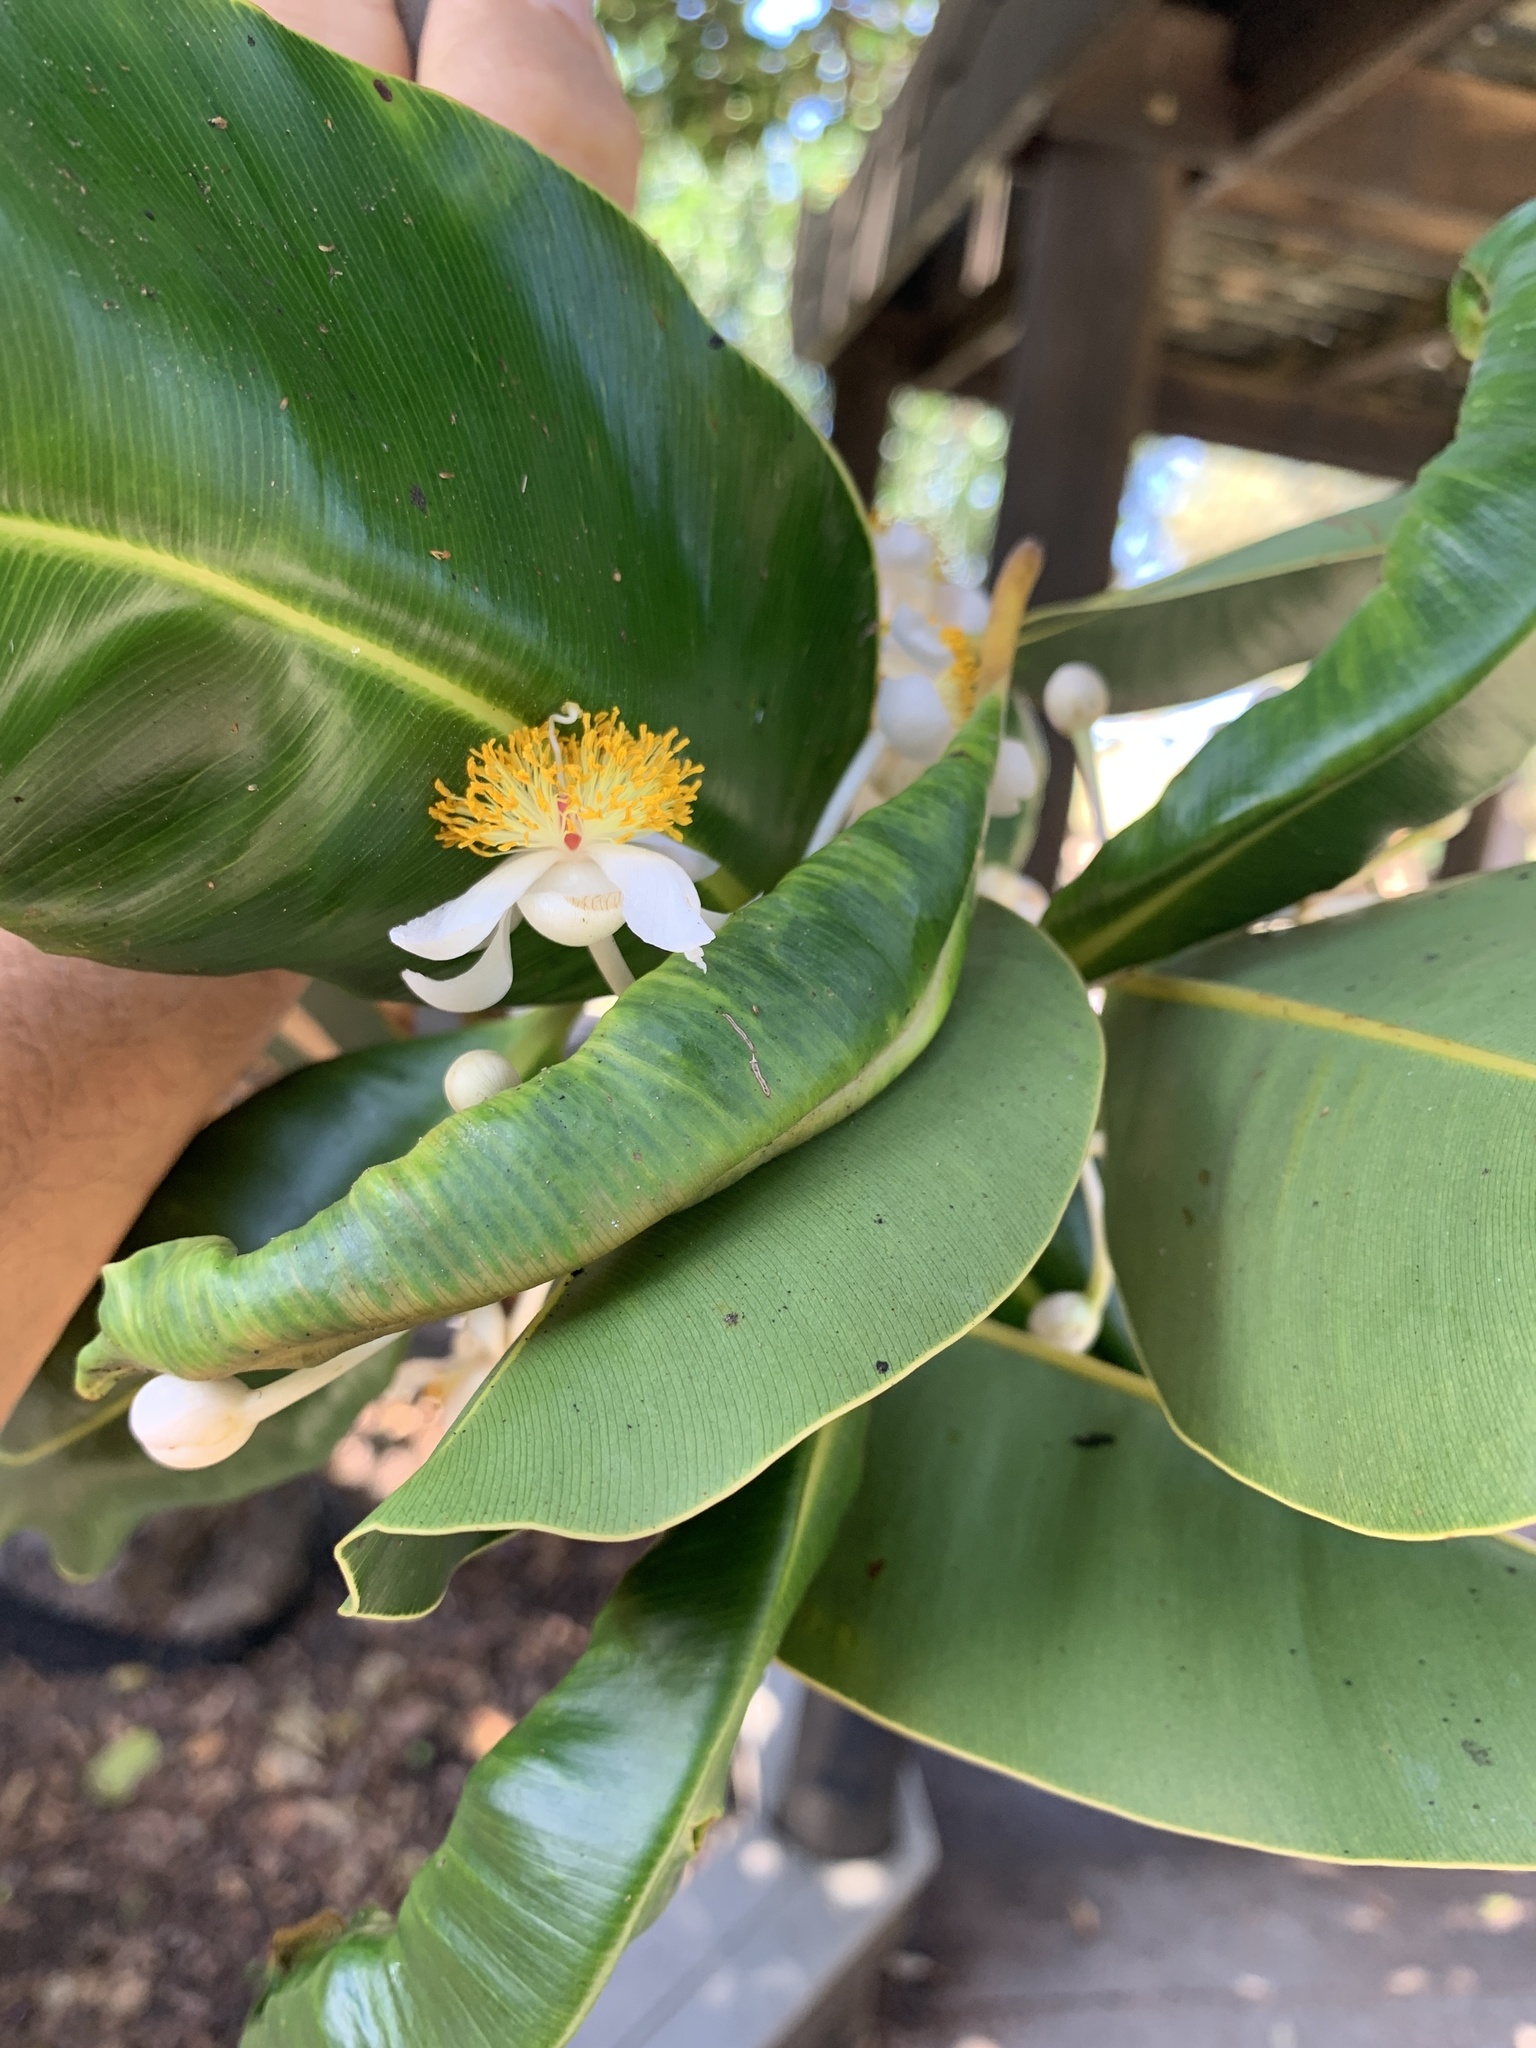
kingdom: Plantae
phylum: Tracheophyta
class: Magnoliopsida
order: Malpighiales
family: Calophyllaceae
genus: Calophyllum
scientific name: Calophyllum inophyllum
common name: Alexandrian laurel
